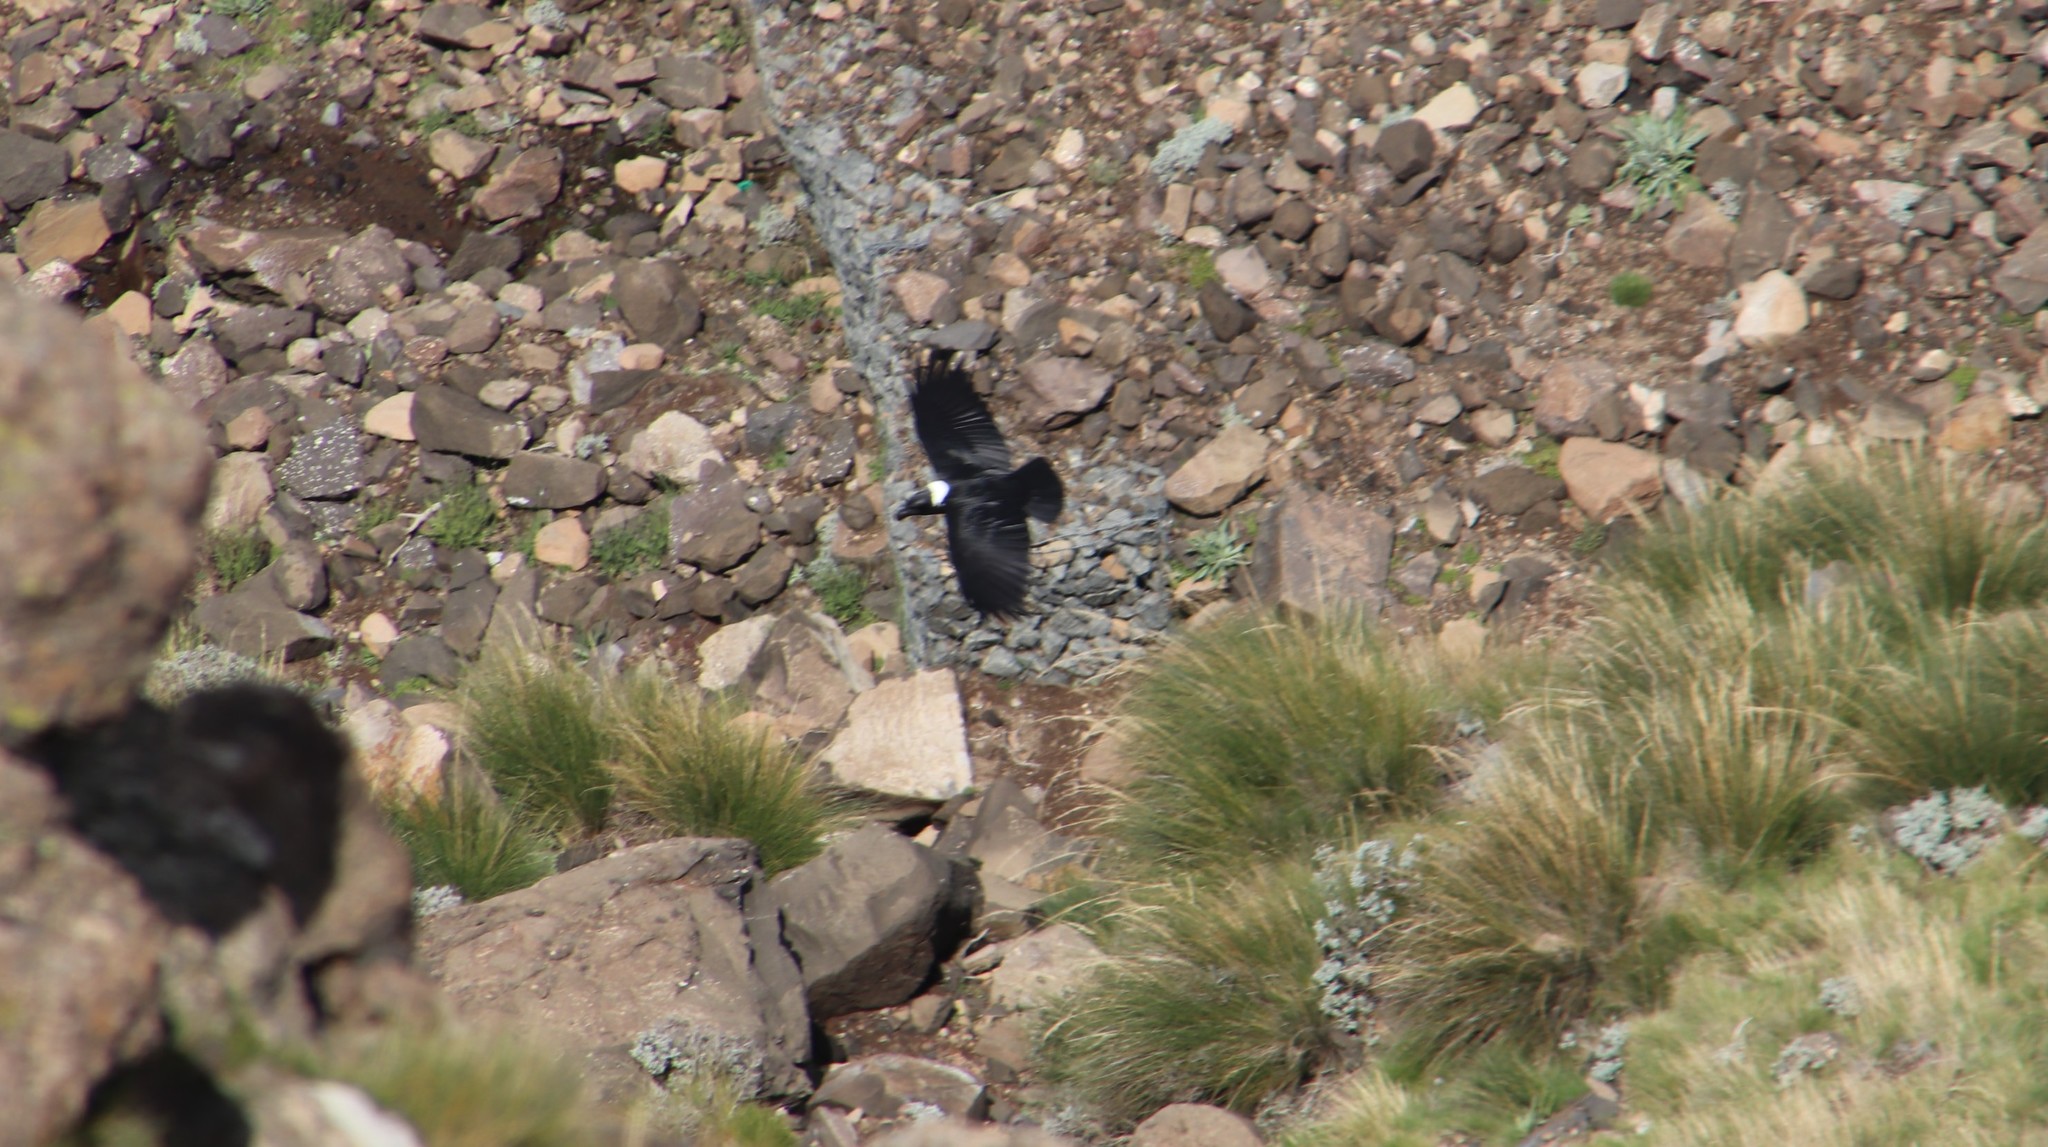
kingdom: Animalia
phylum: Chordata
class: Aves
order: Passeriformes
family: Corvidae
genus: Corvus
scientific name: Corvus albicollis
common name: White-necked raven
